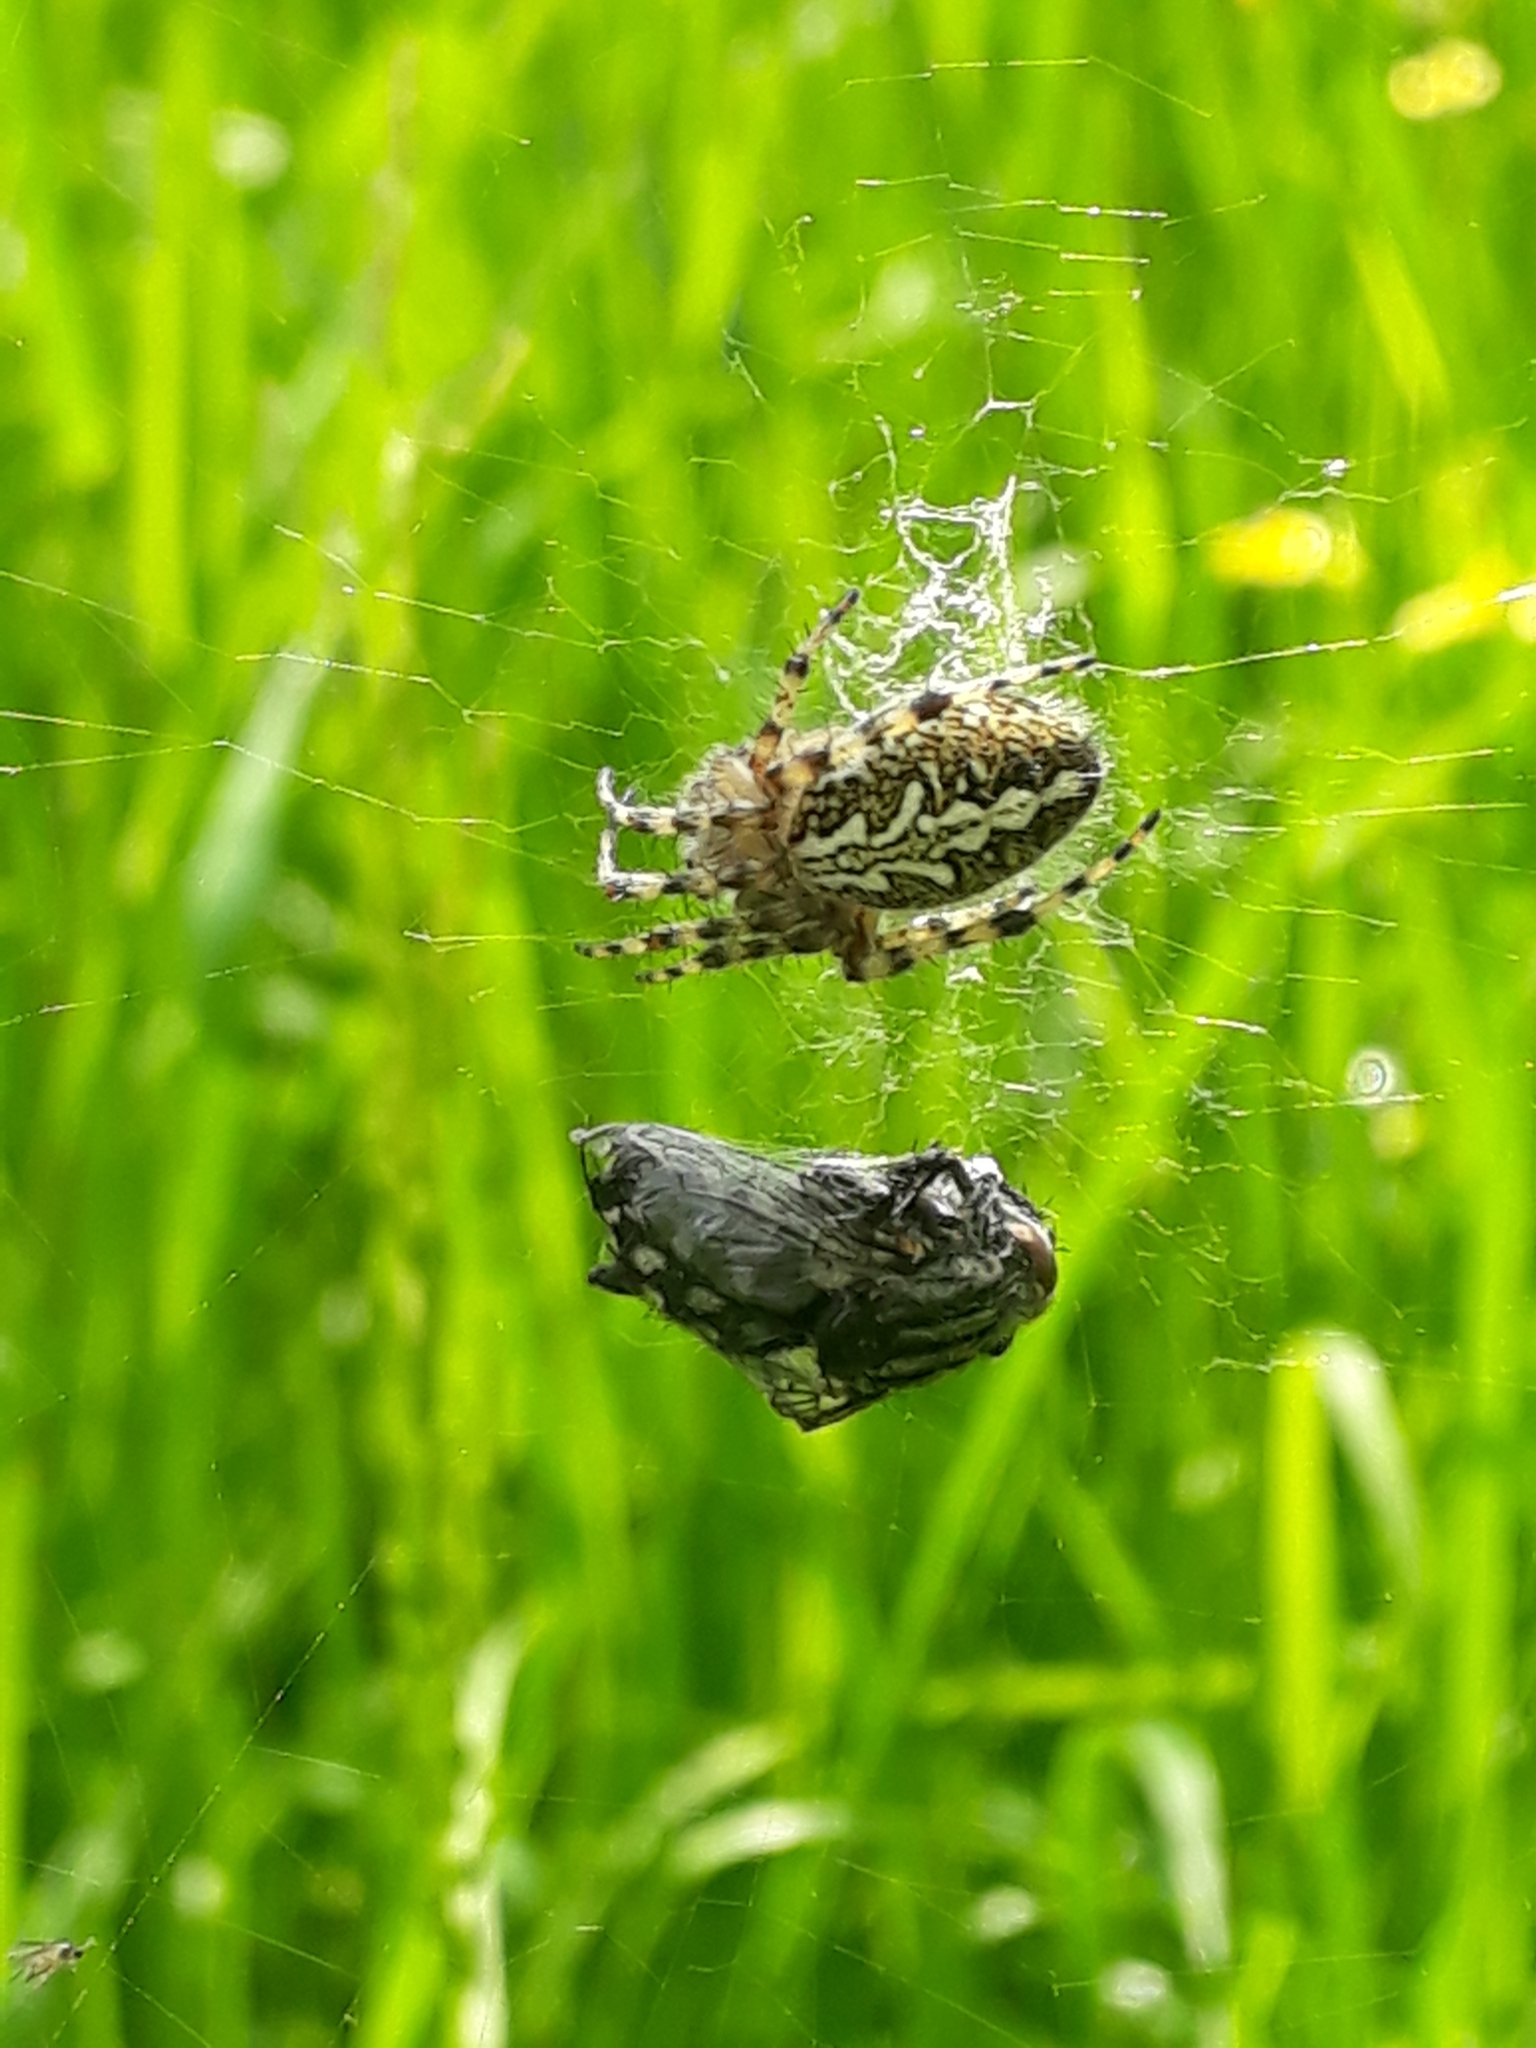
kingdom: Animalia
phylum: Arthropoda
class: Arachnida
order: Araneae
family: Araneidae
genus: Aculepeira
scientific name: Aculepeira ceropegia
